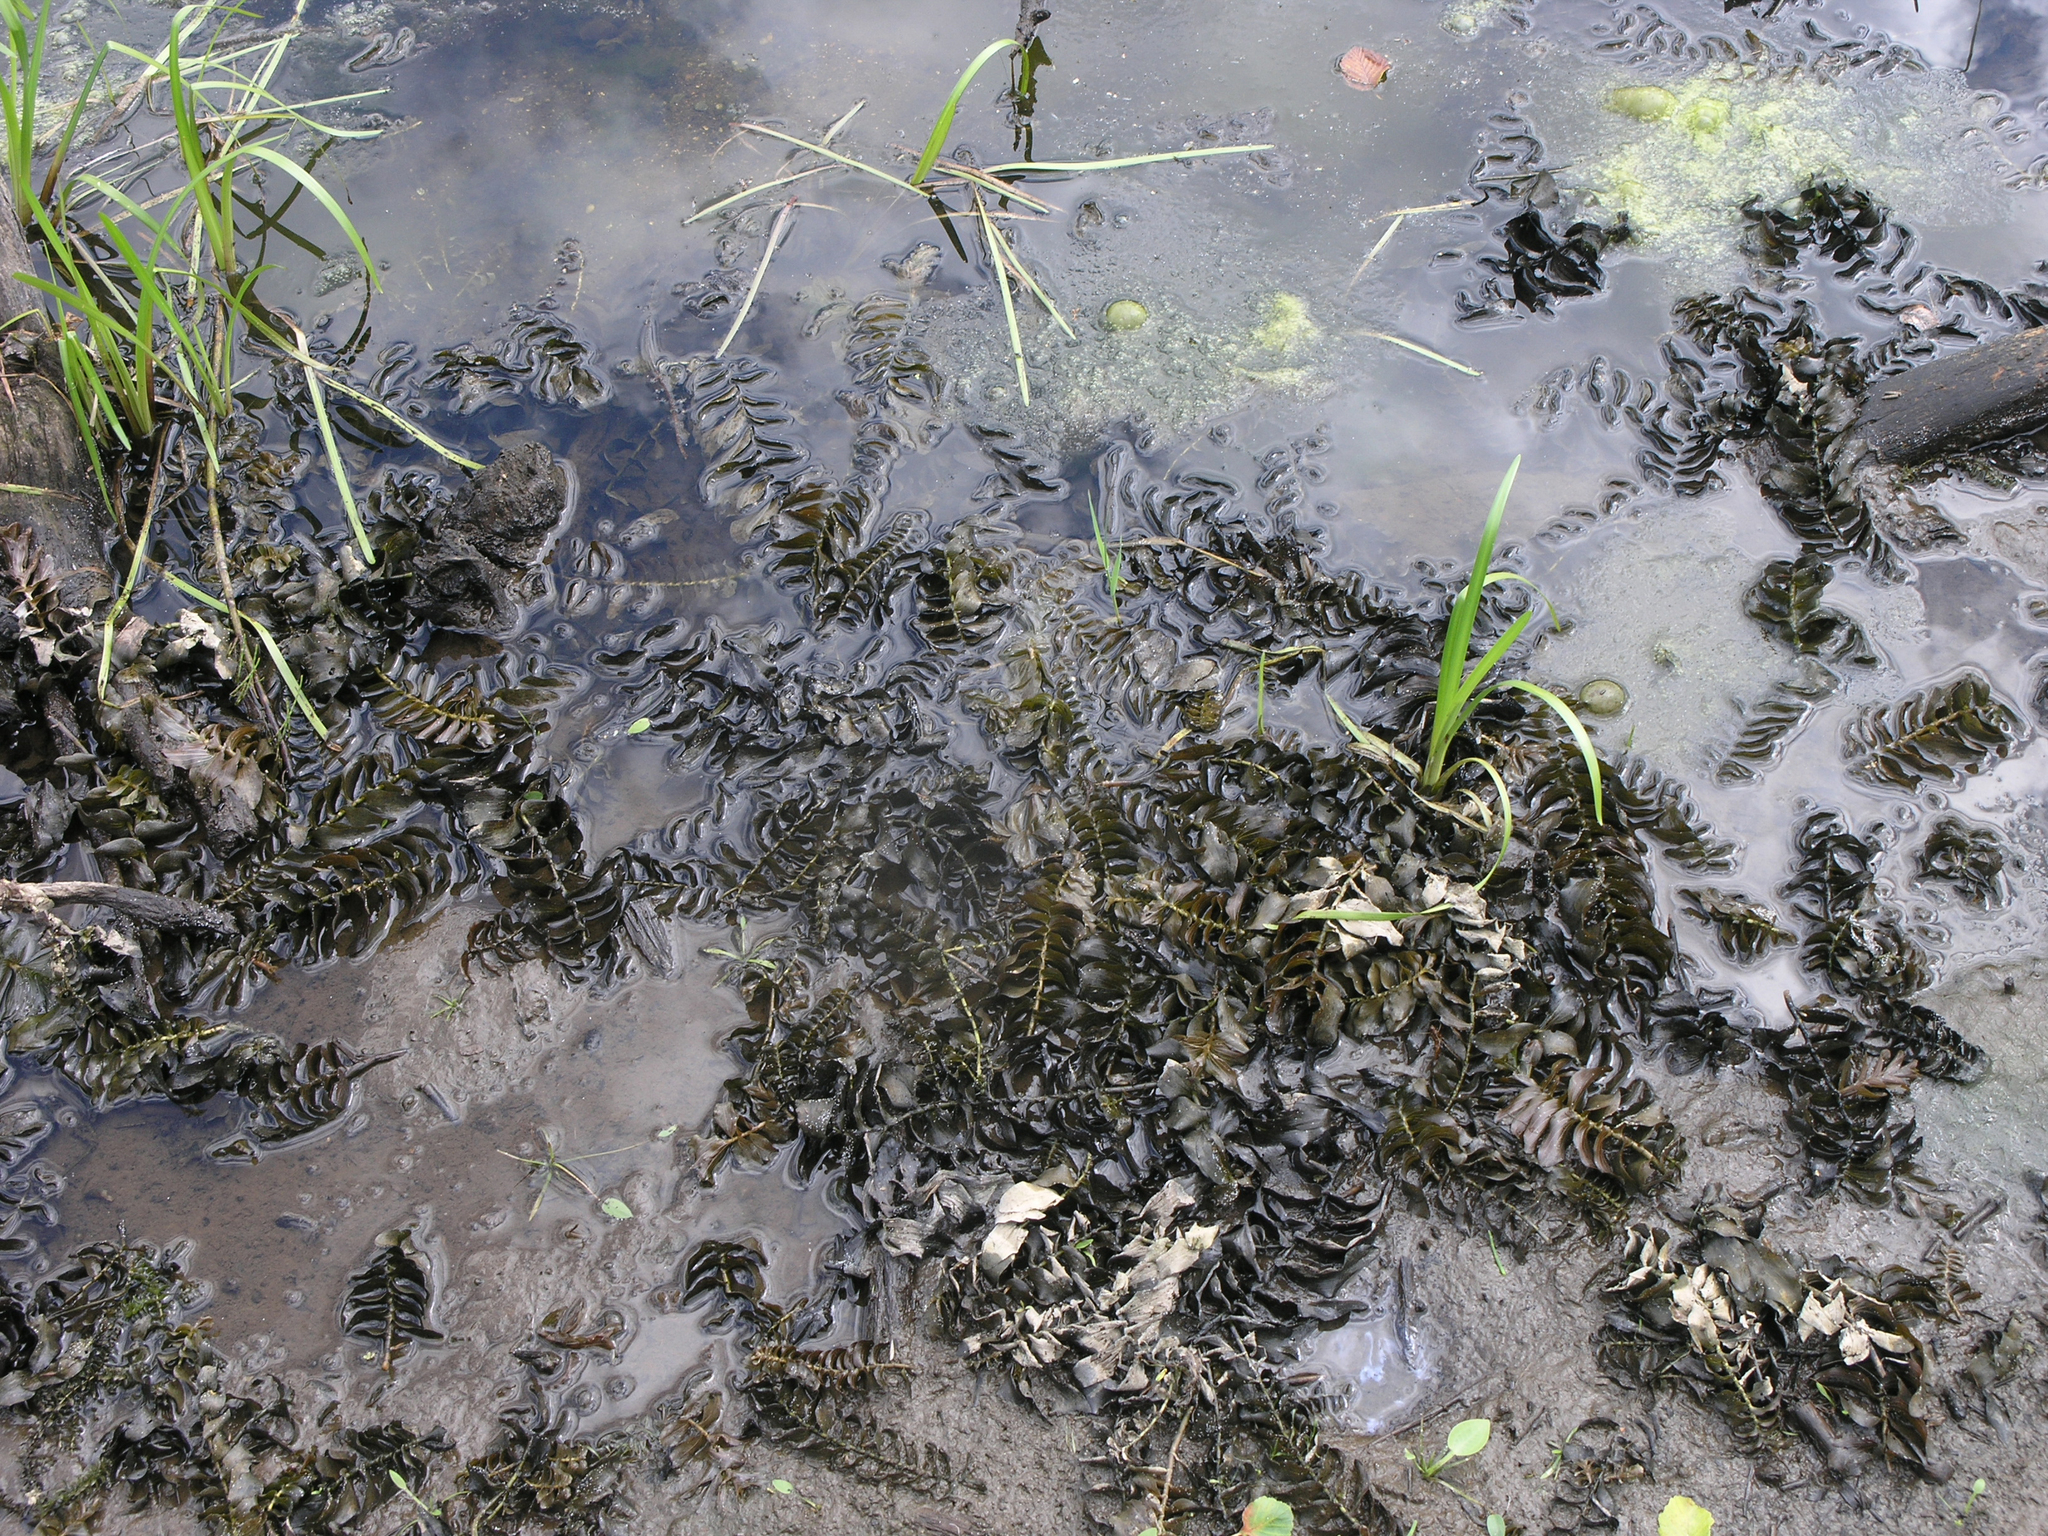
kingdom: Plantae
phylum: Tracheophyta
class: Liliopsida
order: Alismatales
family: Potamogetonaceae
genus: Potamogeton
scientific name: Potamogeton perfoliatus
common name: Perfoliate pondweed
